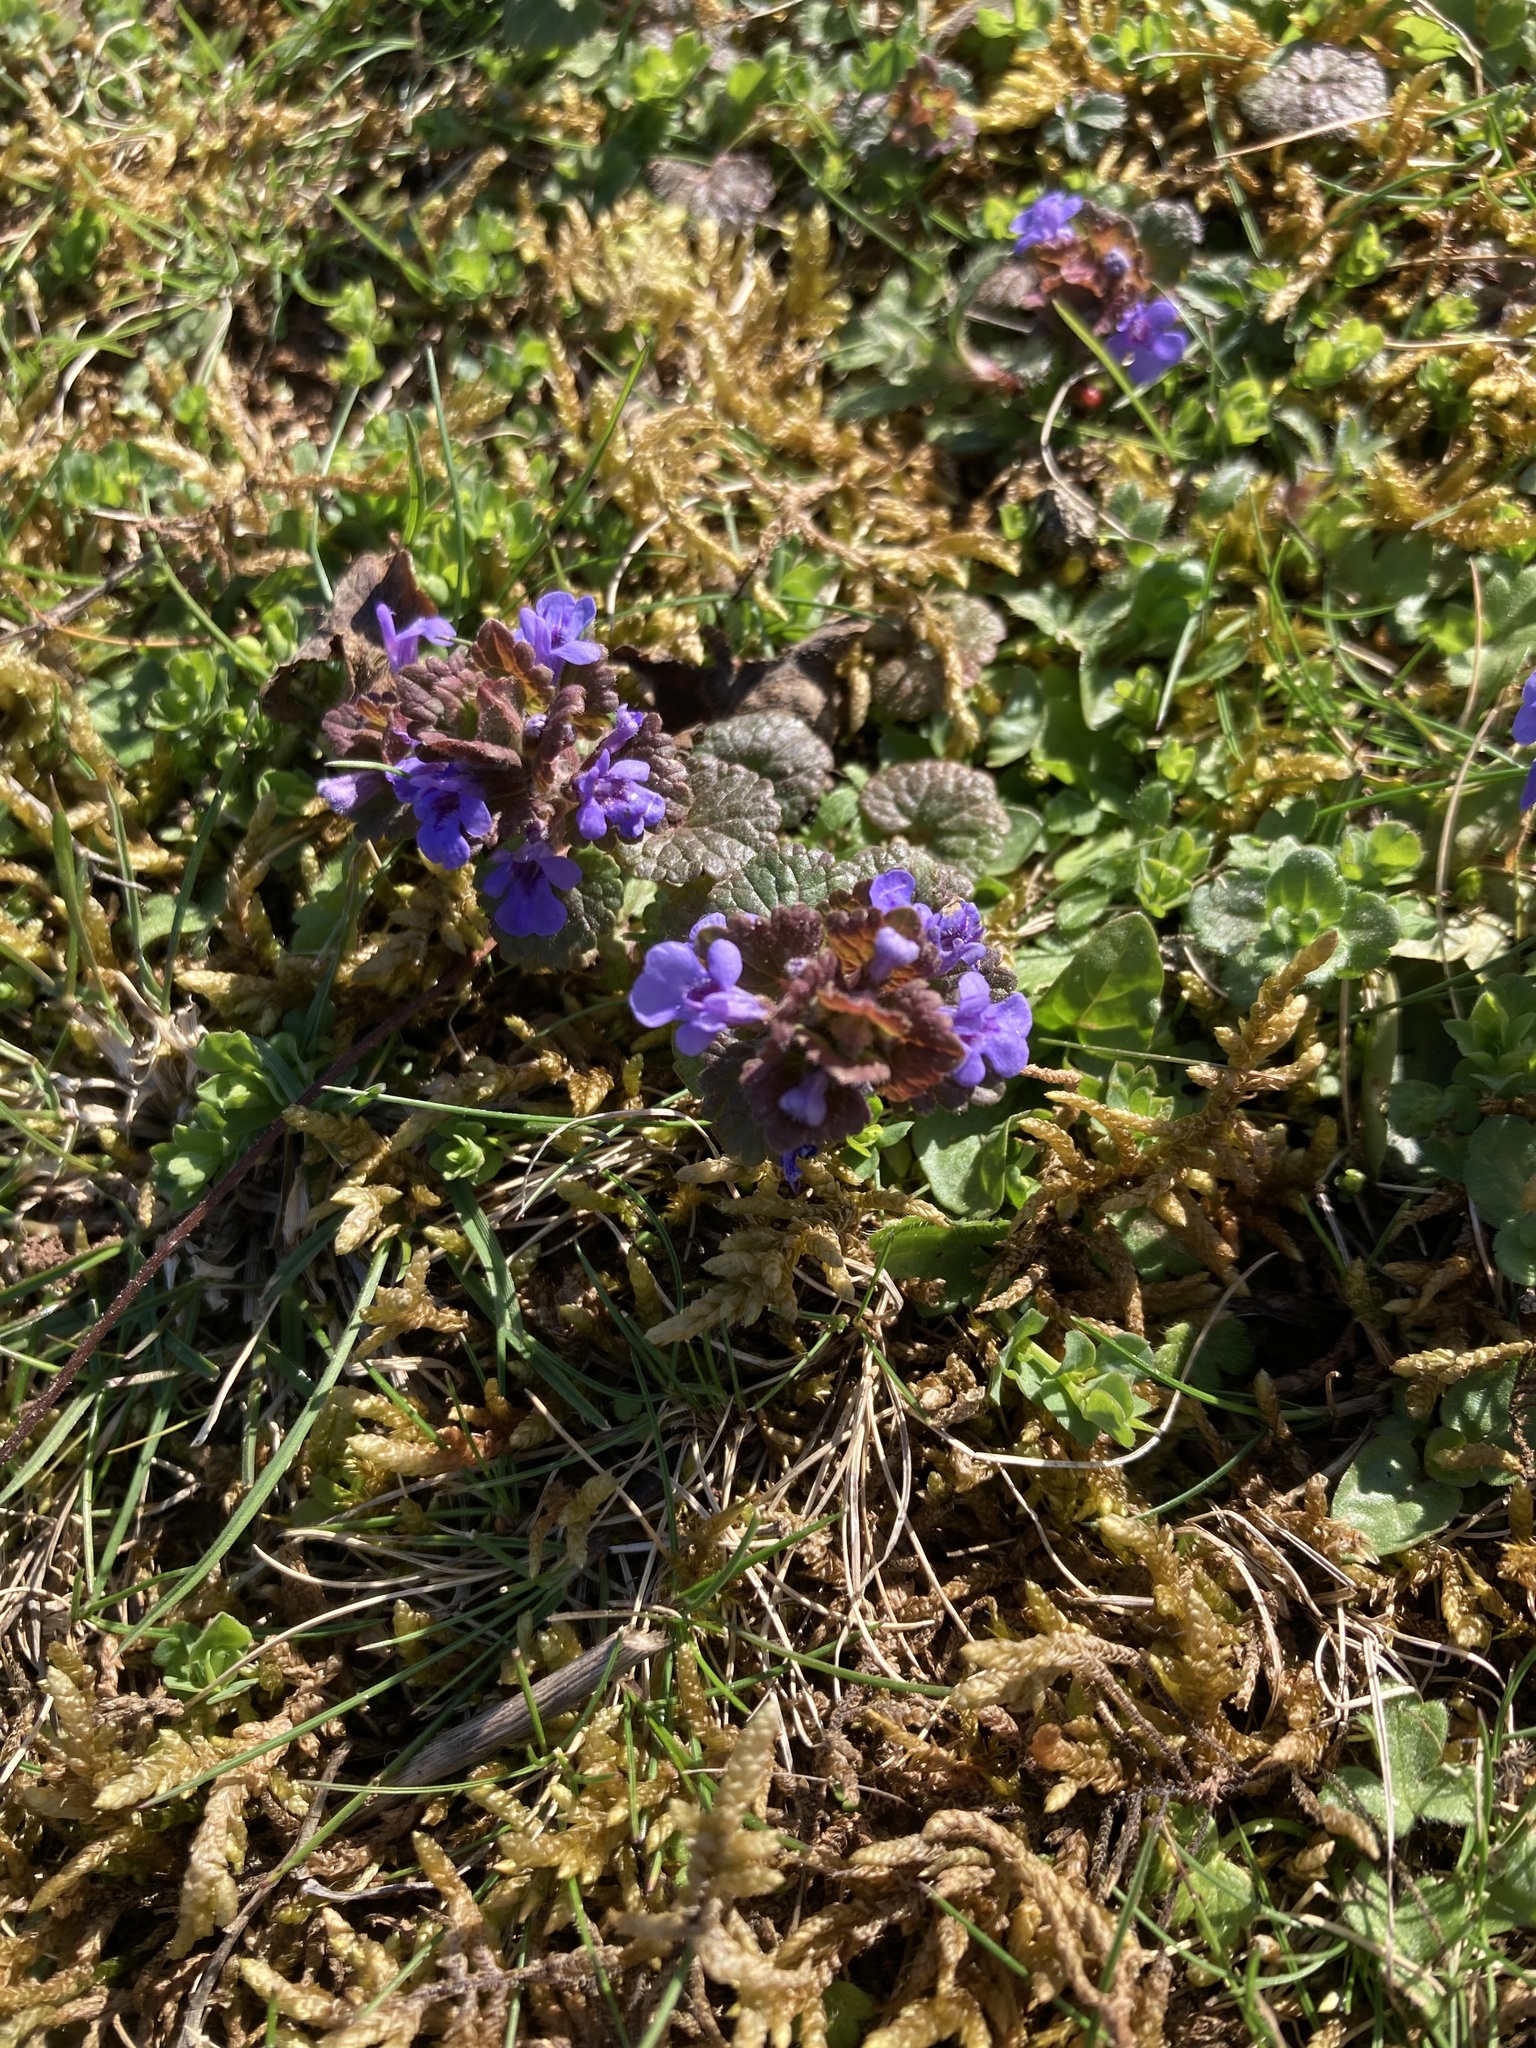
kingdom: Plantae
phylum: Tracheophyta
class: Magnoliopsida
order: Lamiales
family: Lamiaceae
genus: Glechoma
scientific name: Glechoma hederacea
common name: Ground ivy
